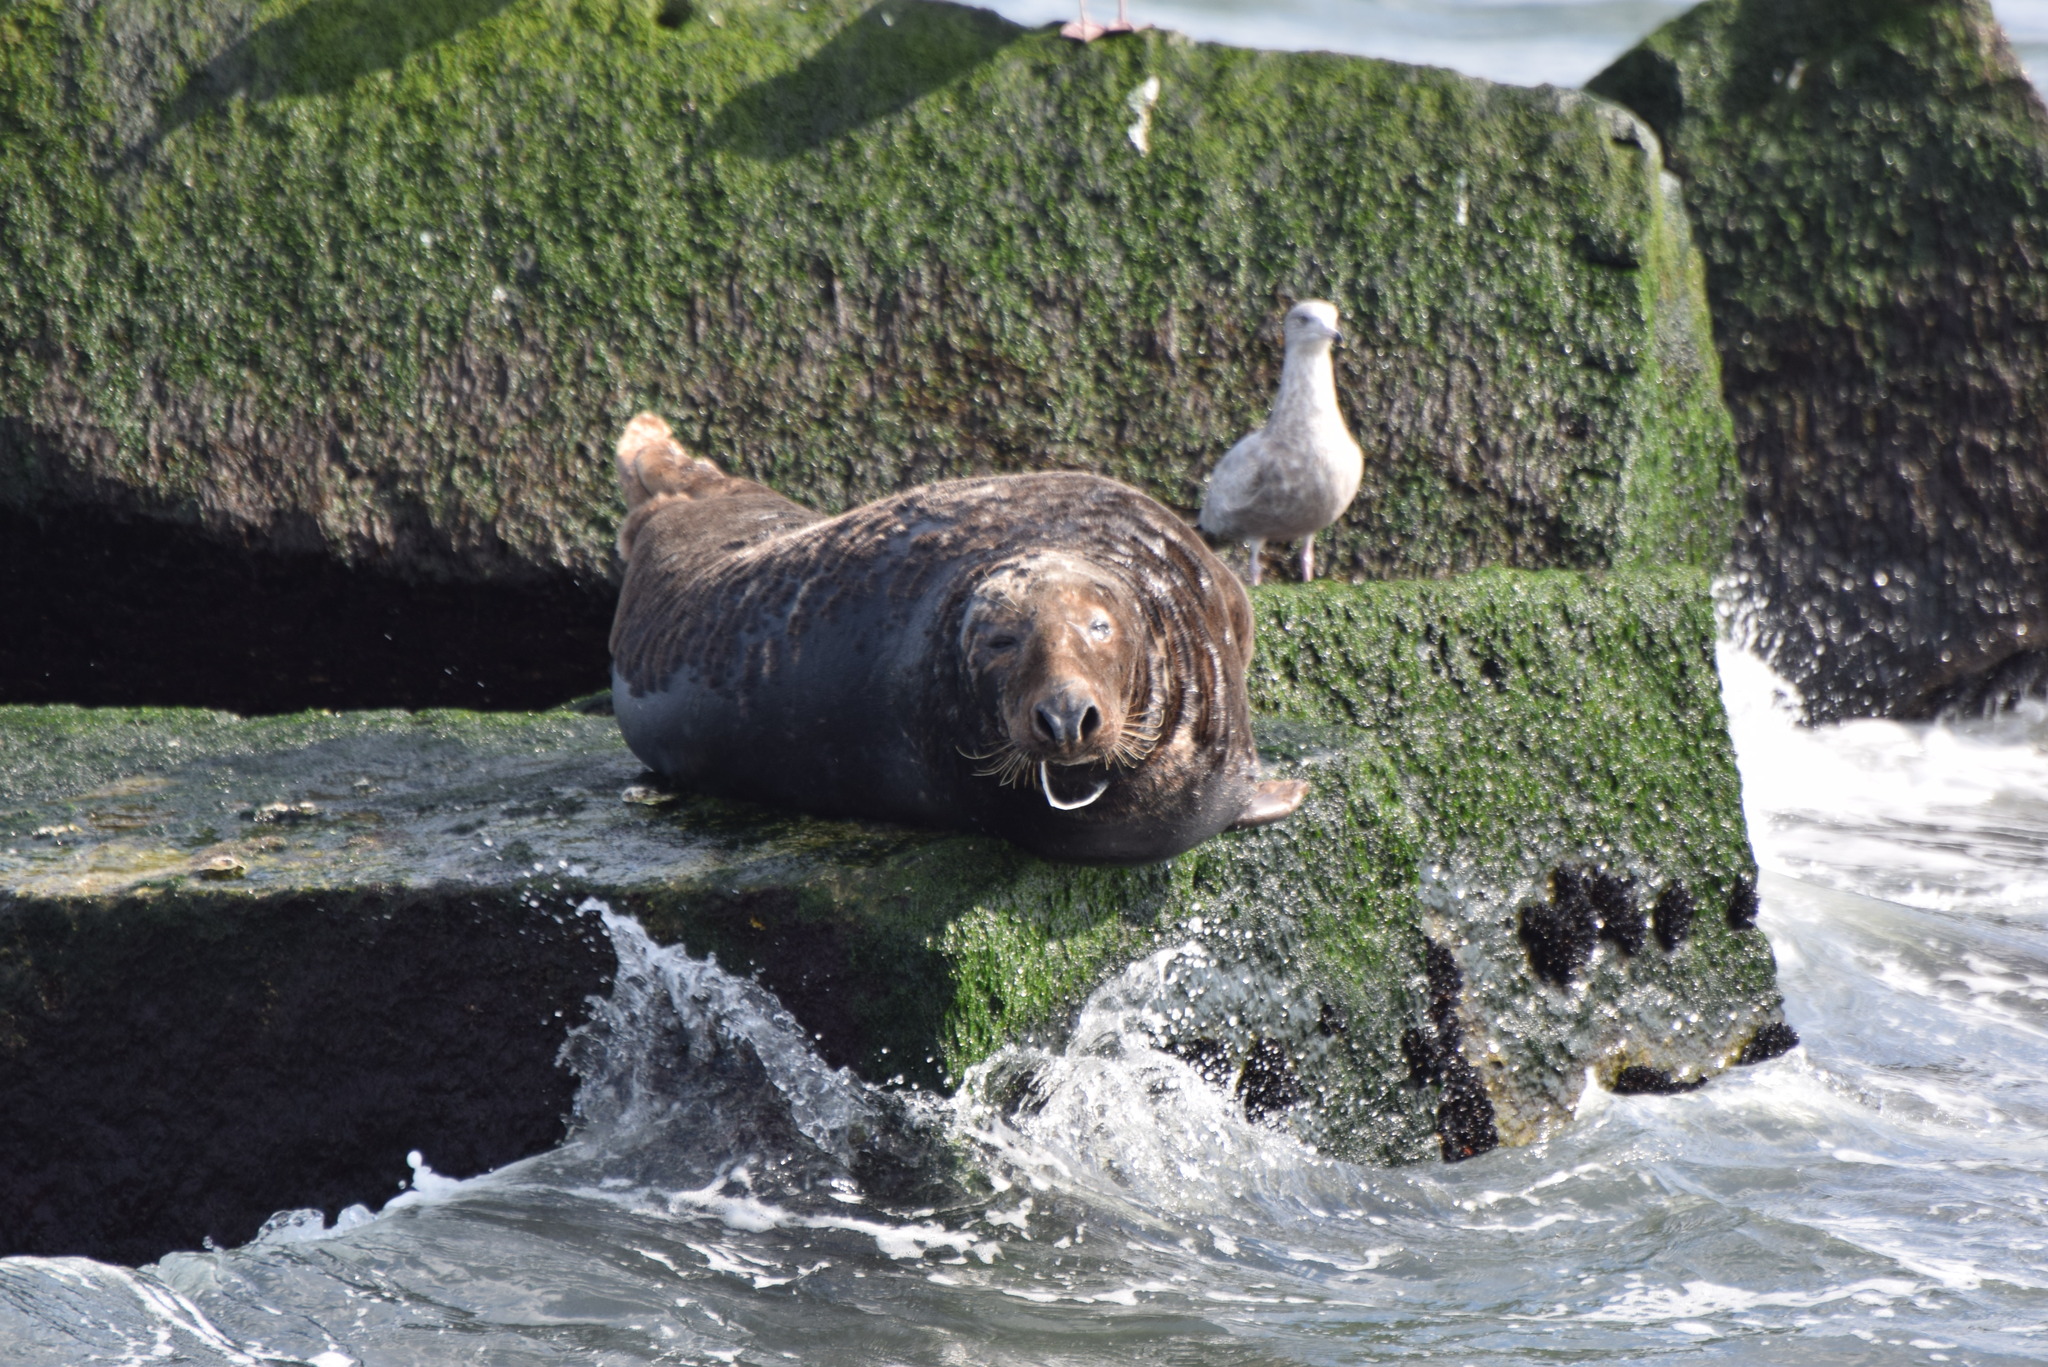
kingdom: Animalia
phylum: Chordata
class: Mammalia
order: Carnivora
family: Phocidae
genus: Halichoerus
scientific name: Halichoerus grypus
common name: Grey seal
